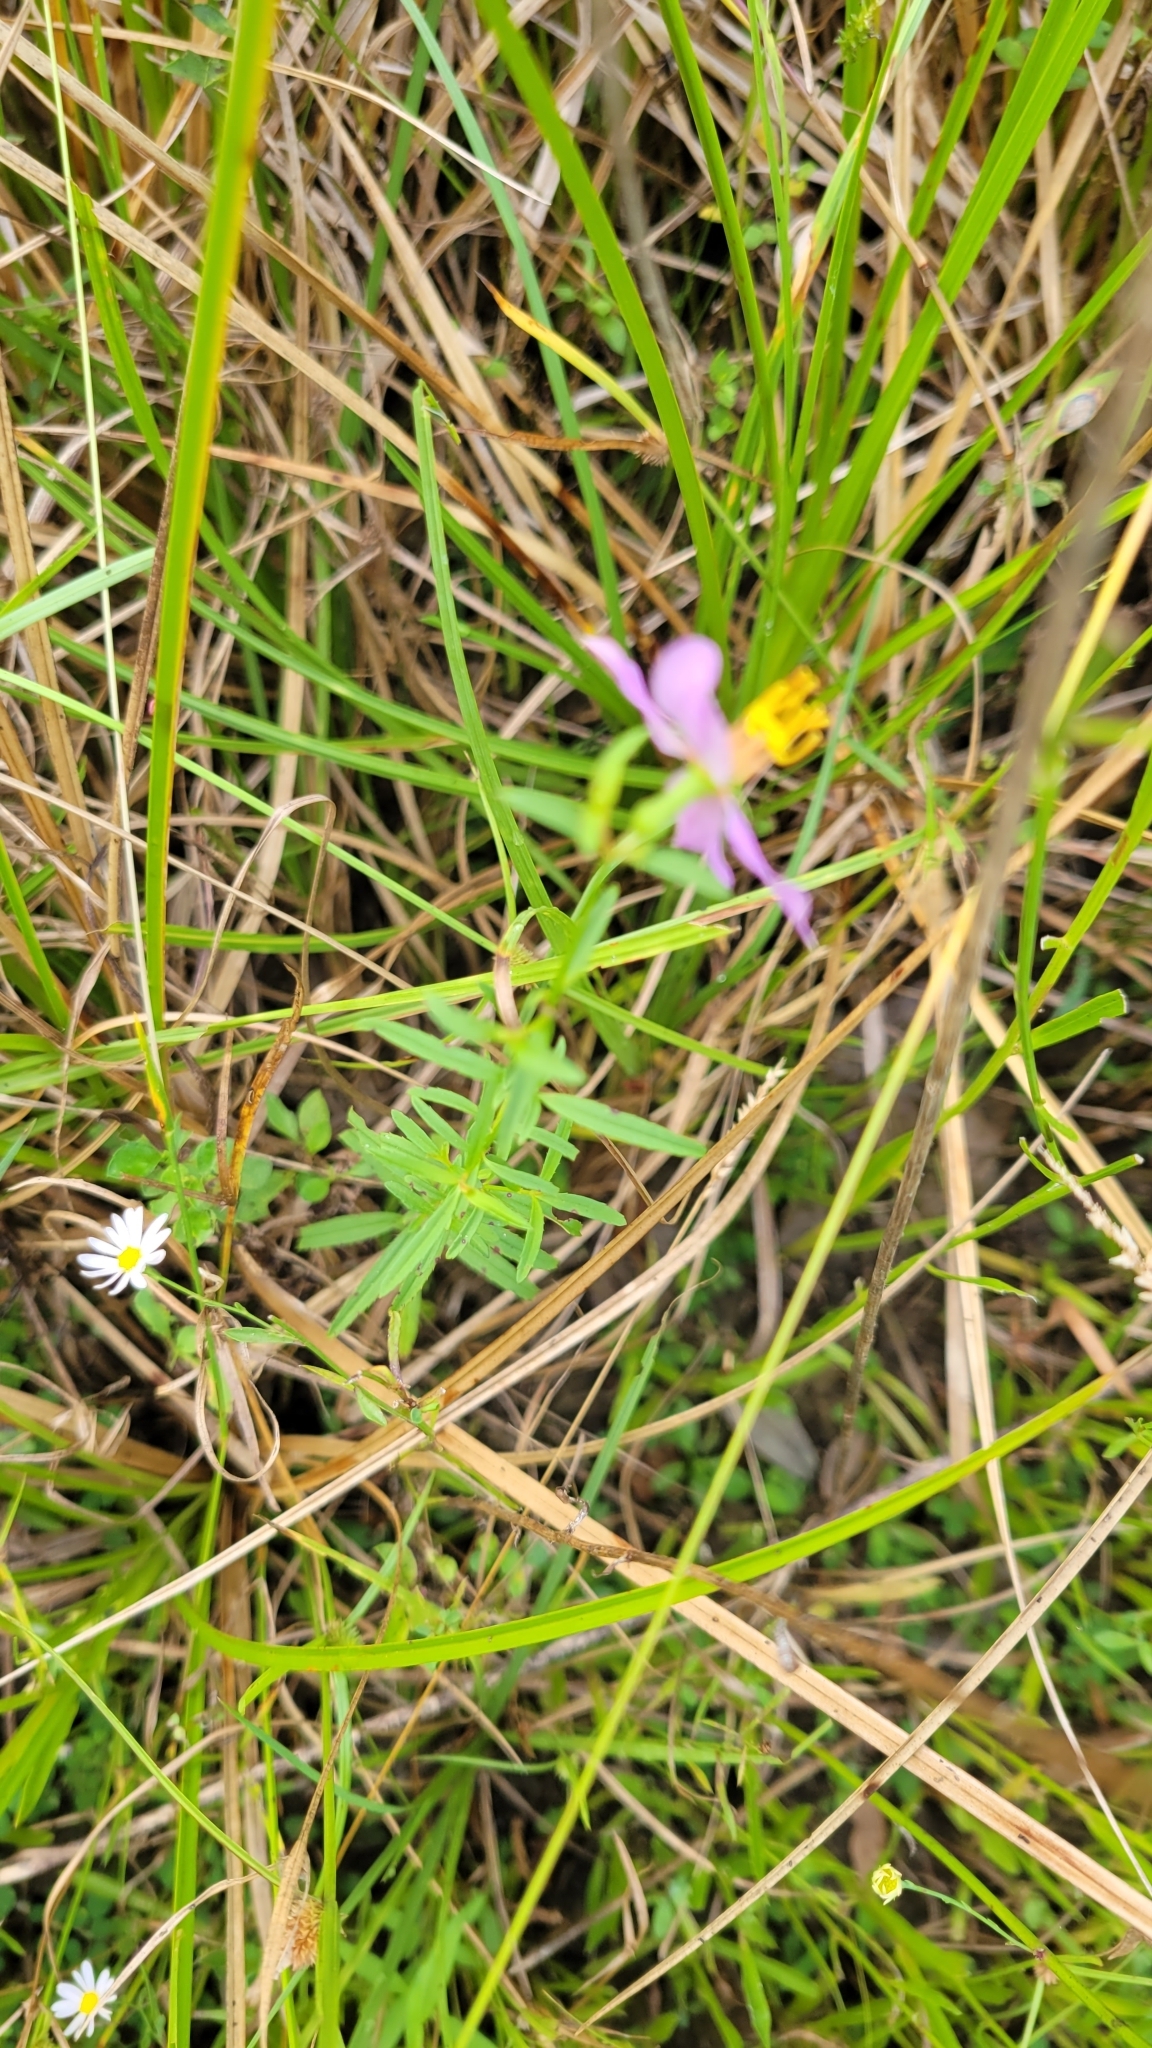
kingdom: Plantae
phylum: Tracheophyta
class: Magnoliopsida
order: Myrtales
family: Melastomataceae
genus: Rhexia
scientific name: Rhexia mariana
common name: Dull meadow-pitcher
